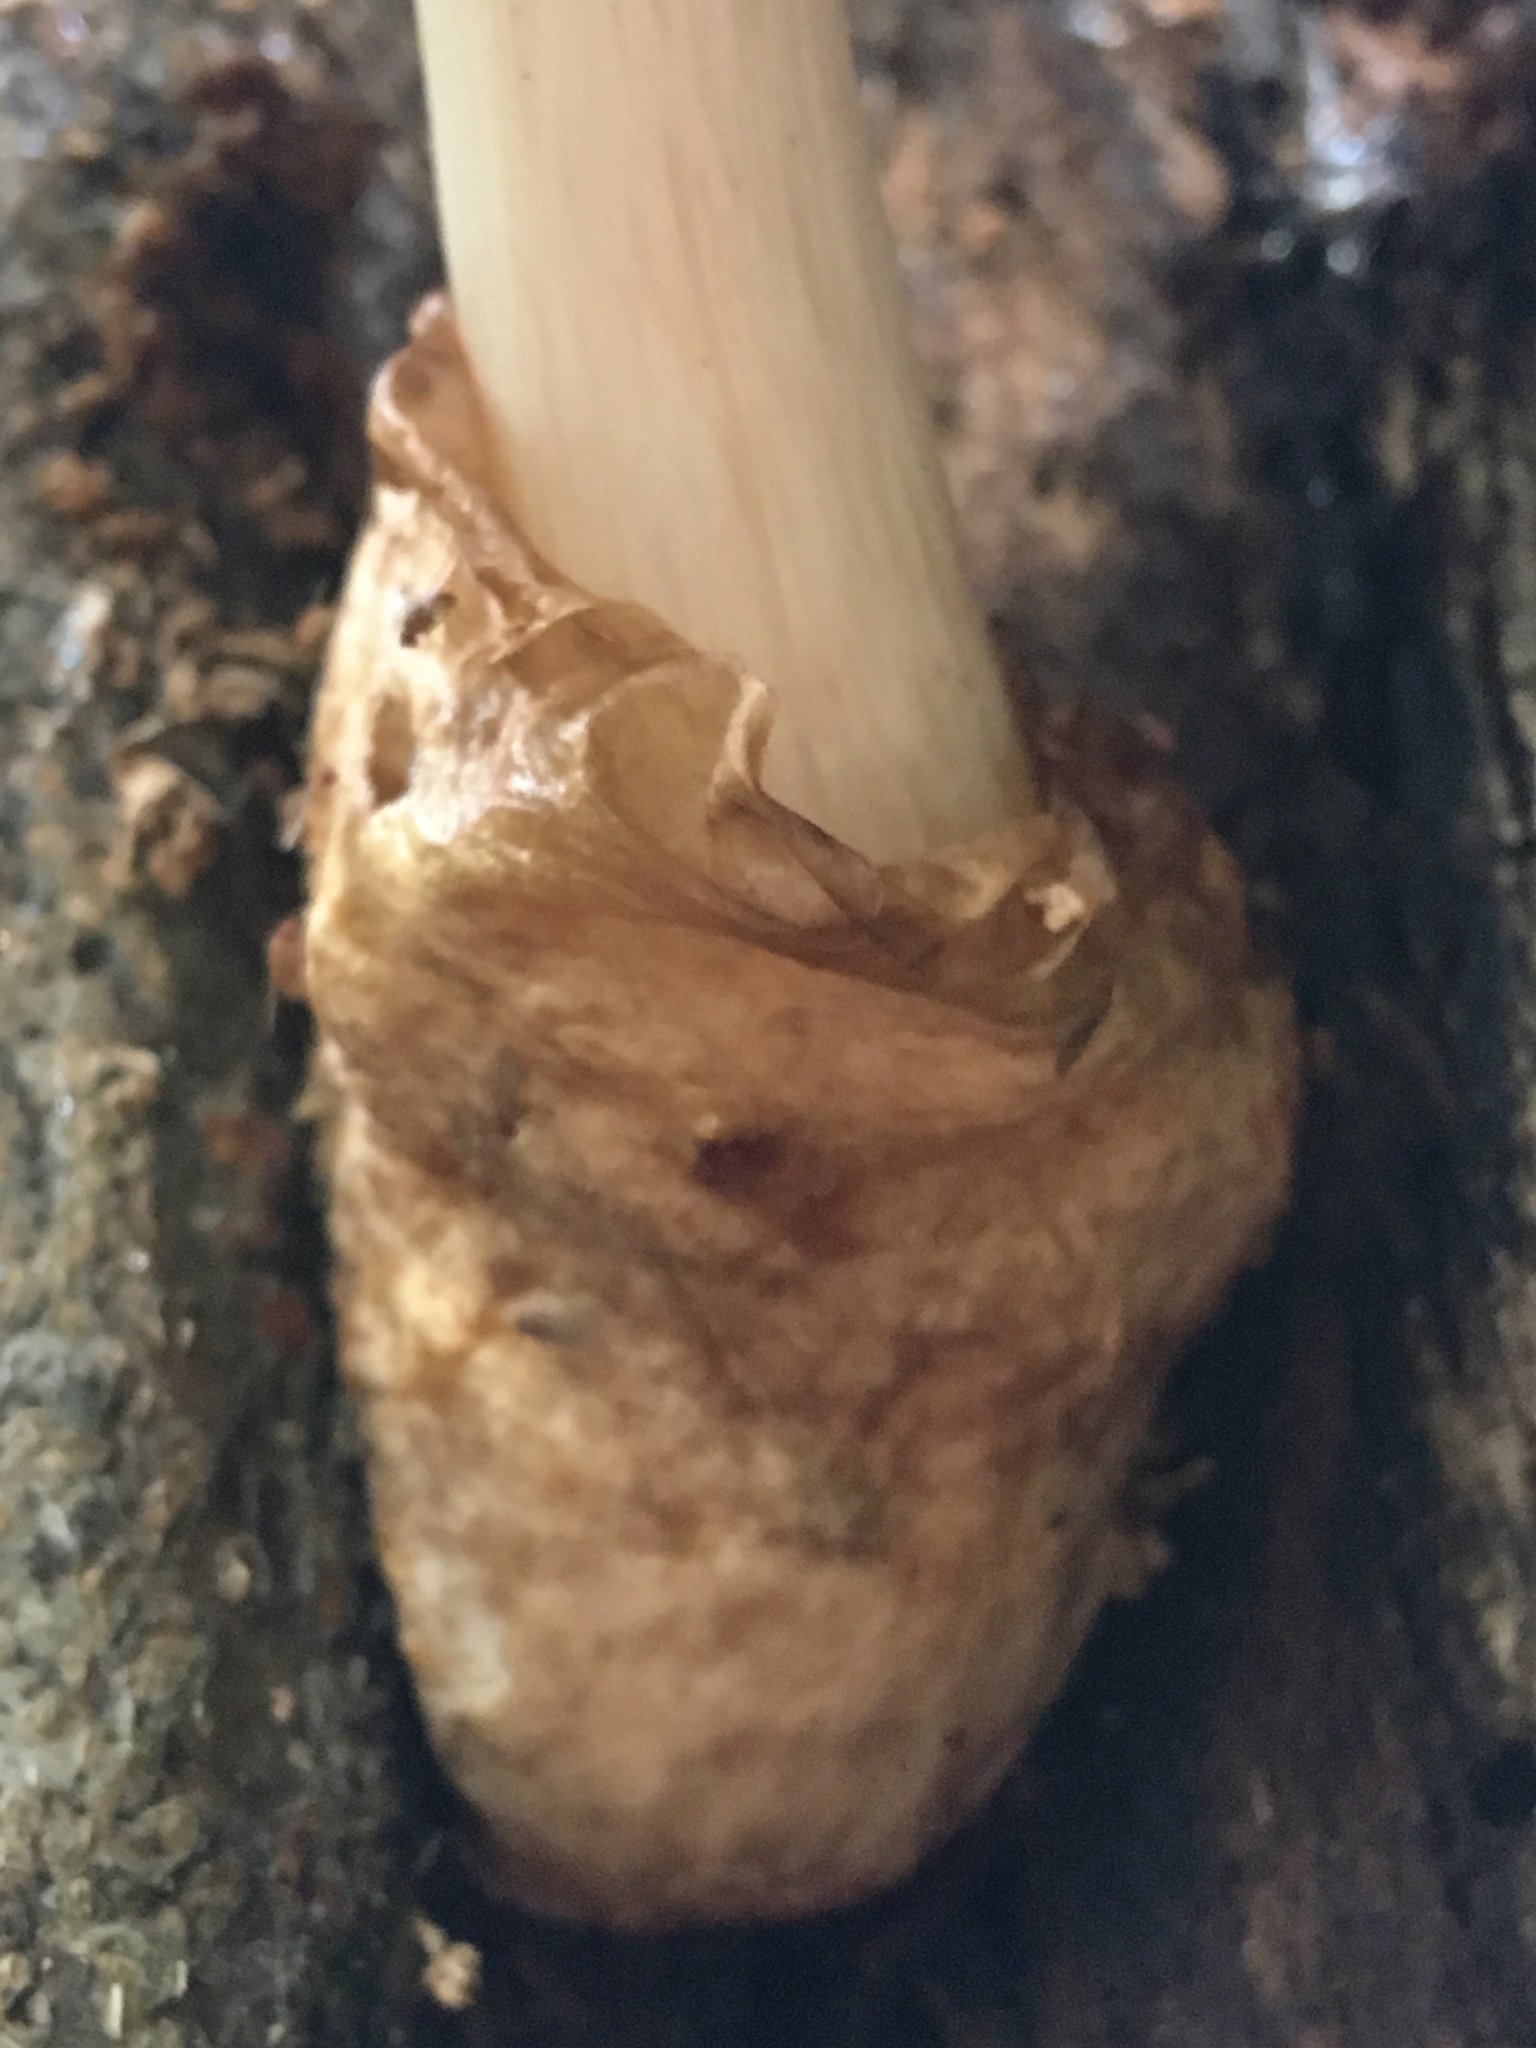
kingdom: Fungi
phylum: Basidiomycota
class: Agaricomycetes
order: Agaricales
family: Pluteaceae
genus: Volvariella
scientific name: Volvariella bombycina
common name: Silky rosegill
